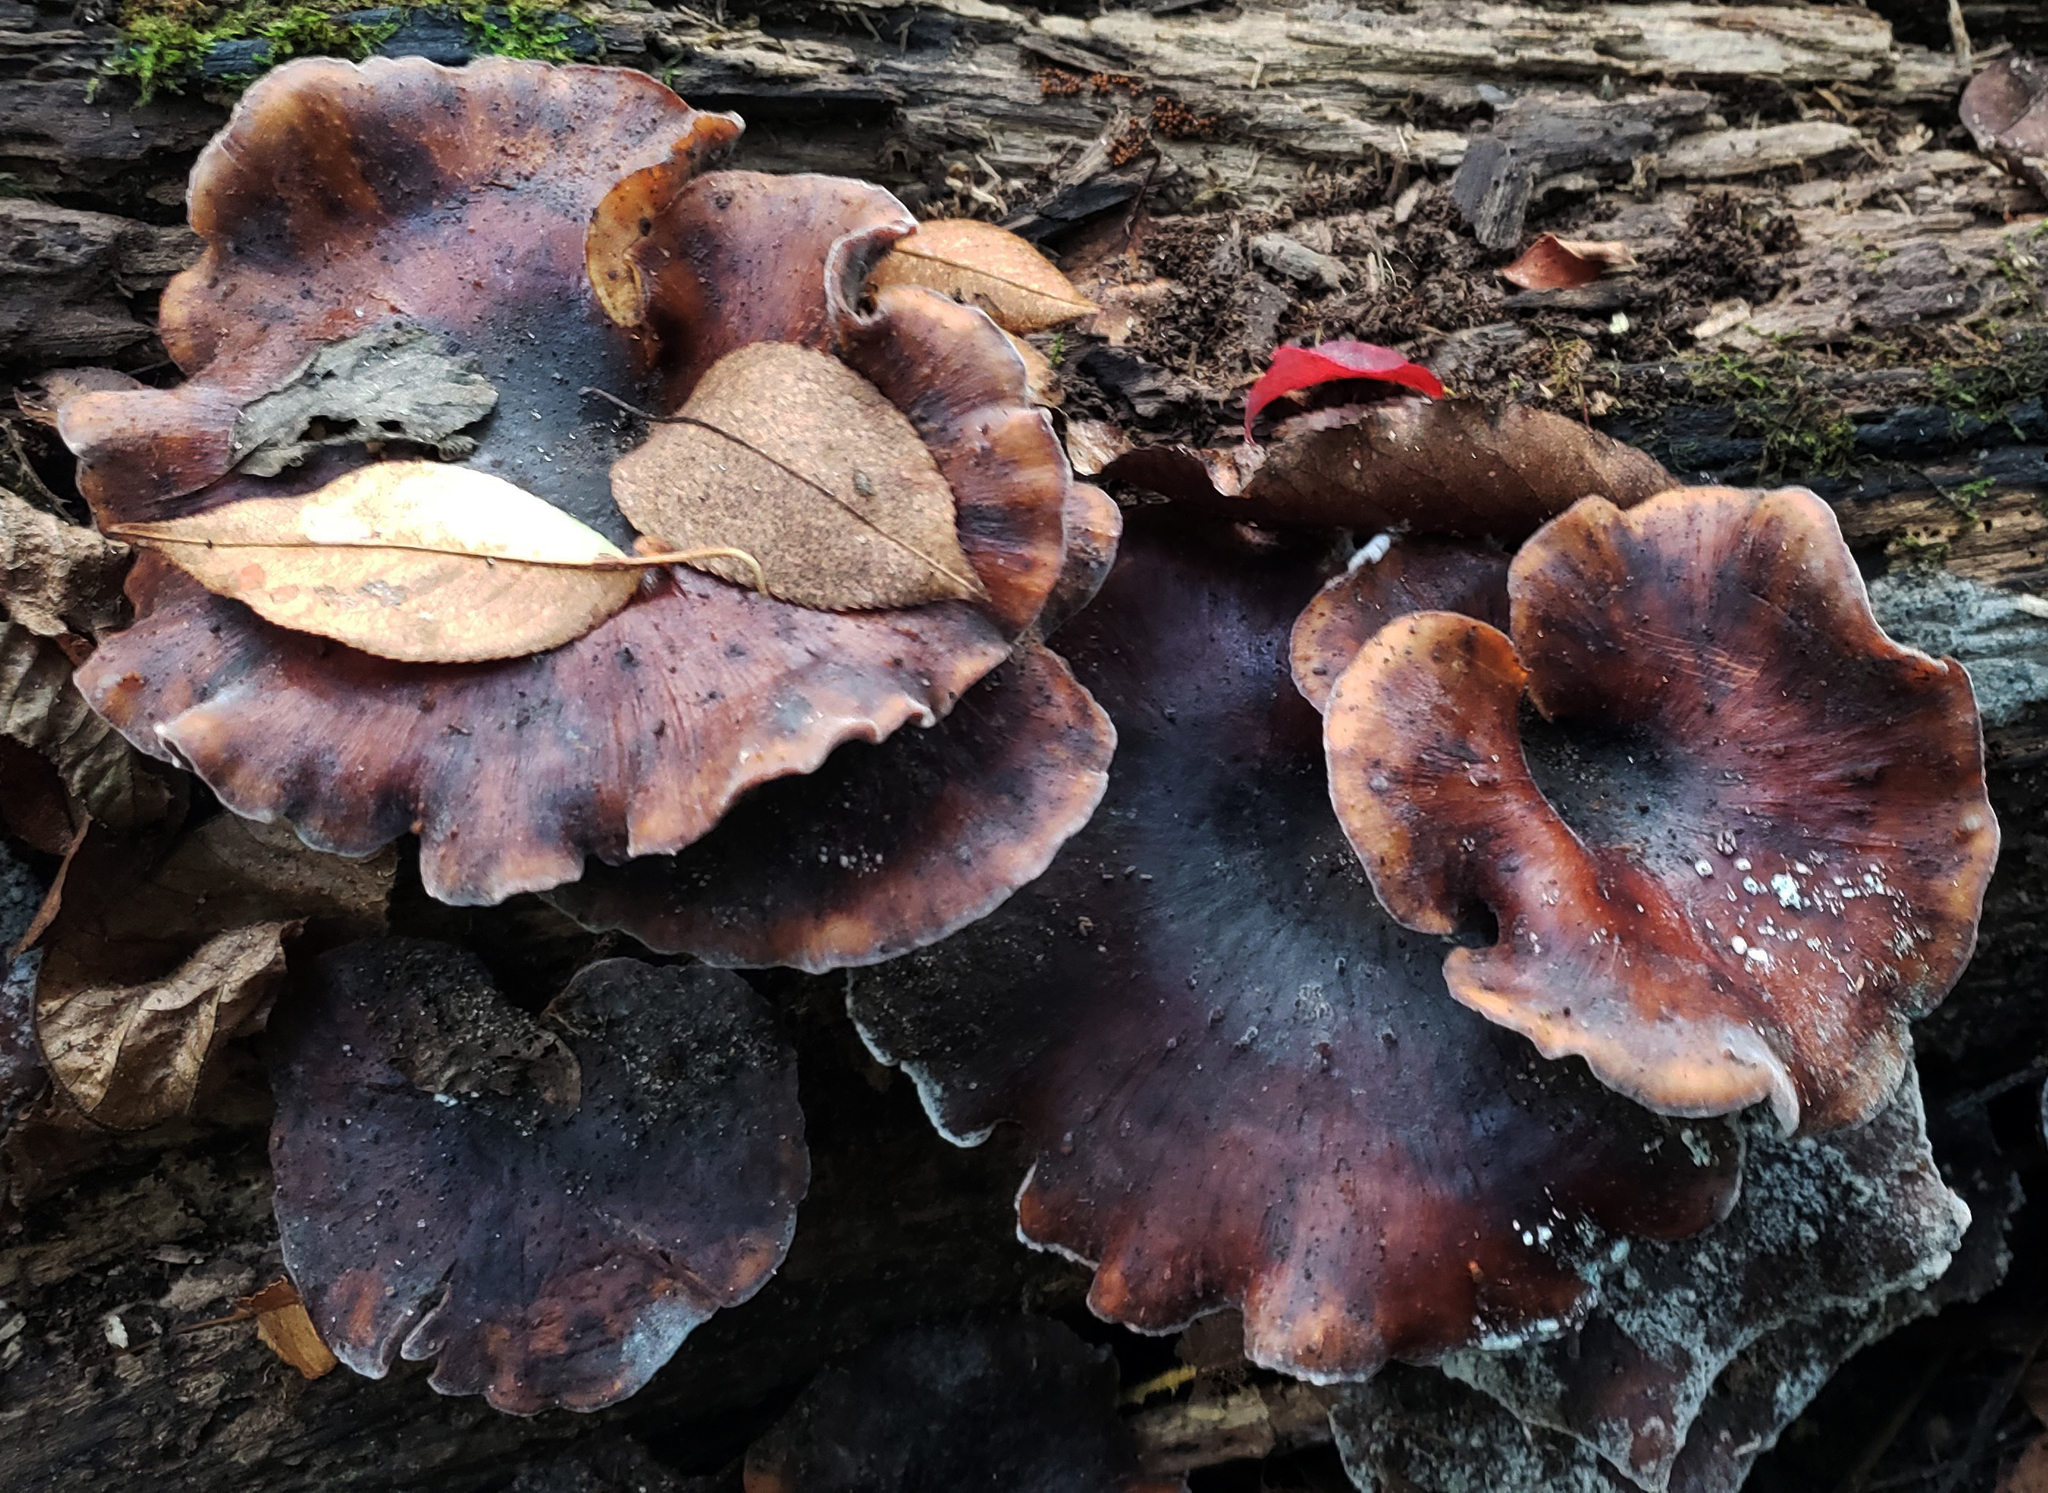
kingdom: Fungi
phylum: Basidiomycota
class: Agaricomycetes
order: Polyporales
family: Polyporaceae
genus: Picipes
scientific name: Picipes badius
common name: Bay polypore
